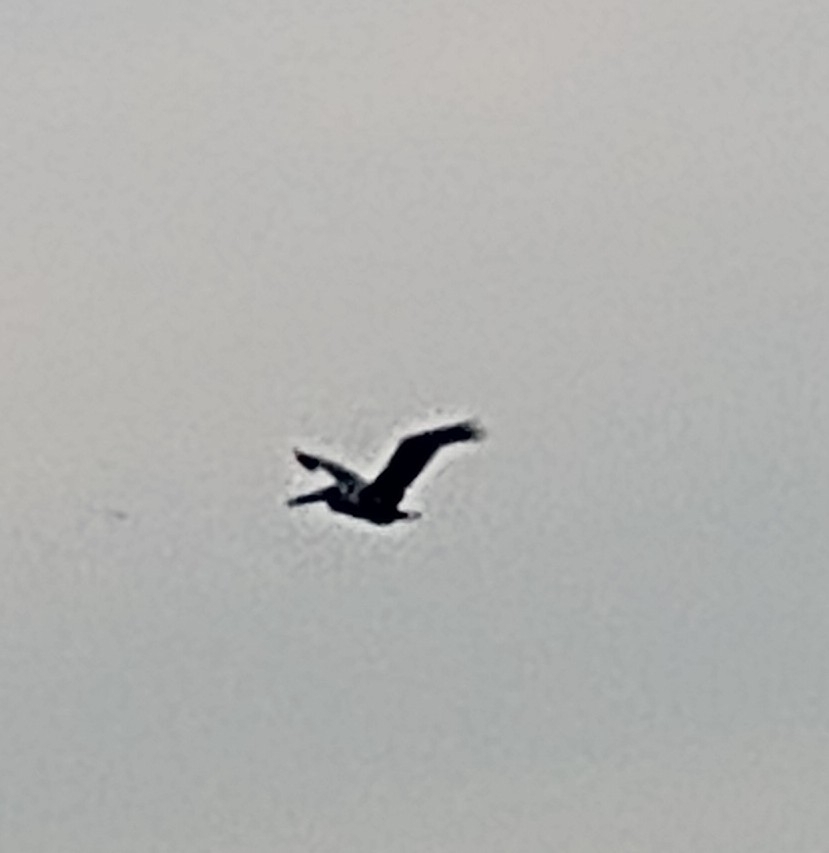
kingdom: Animalia
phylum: Chordata
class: Aves
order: Pelecaniformes
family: Pelecanidae
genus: Pelecanus
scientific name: Pelecanus occidentalis
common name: Brown pelican
